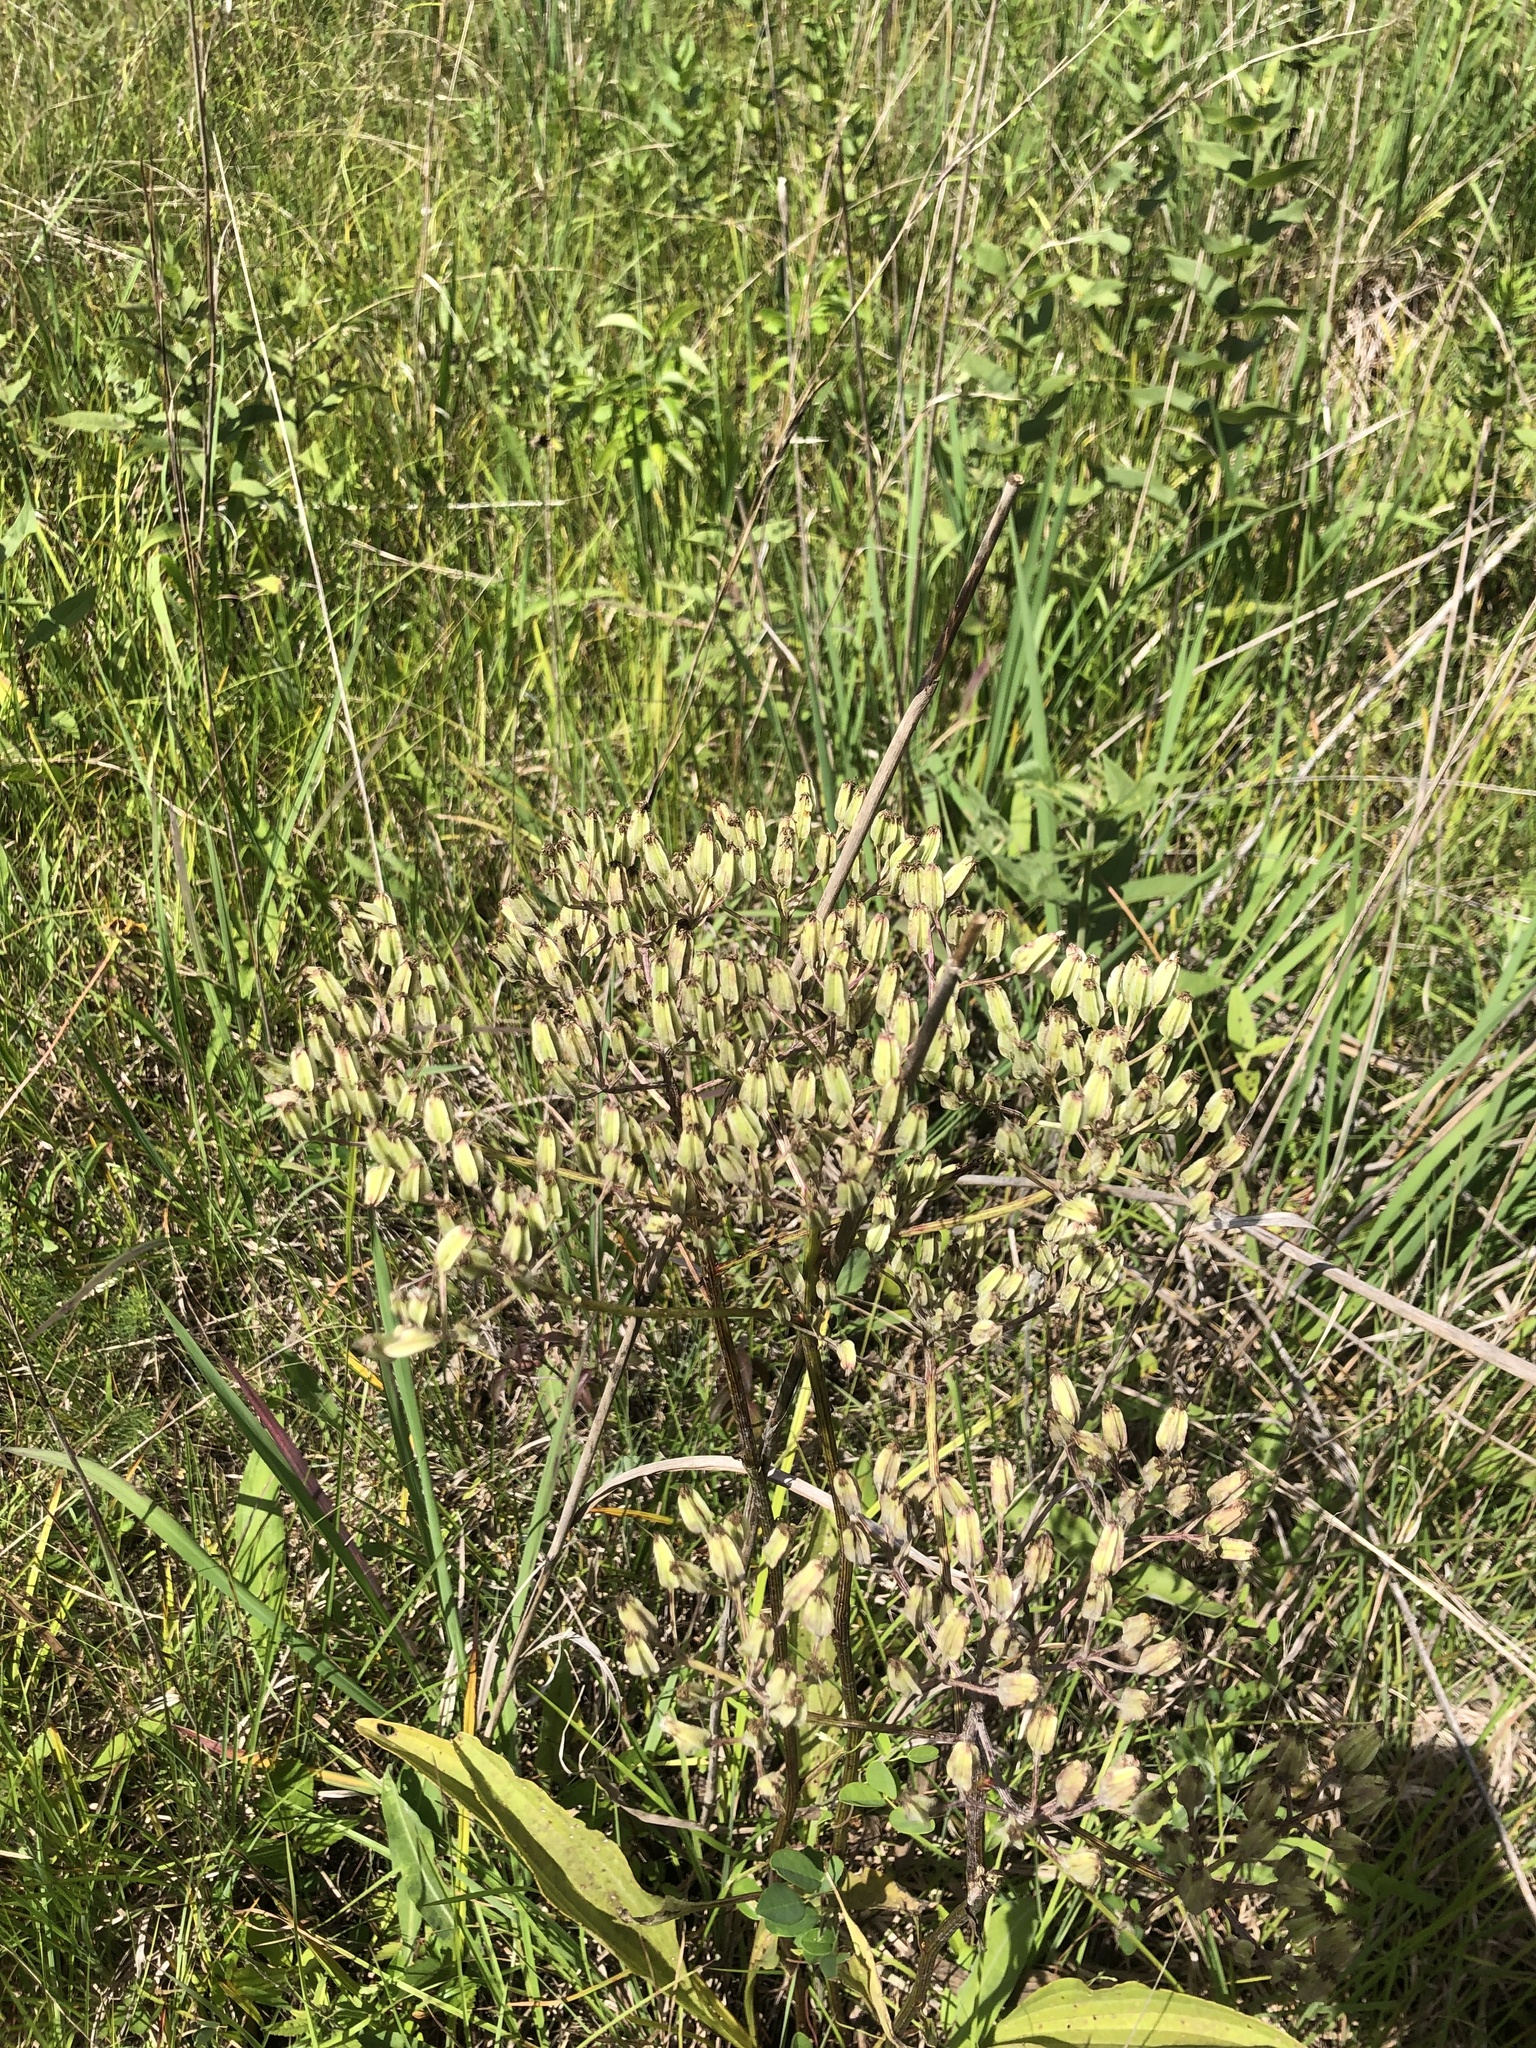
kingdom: Plantae
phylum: Tracheophyta
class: Magnoliopsida
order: Asterales
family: Asteraceae
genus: Arnoglossum
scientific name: Arnoglossum plantagineum
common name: Groove-stemmed indian-plantain
